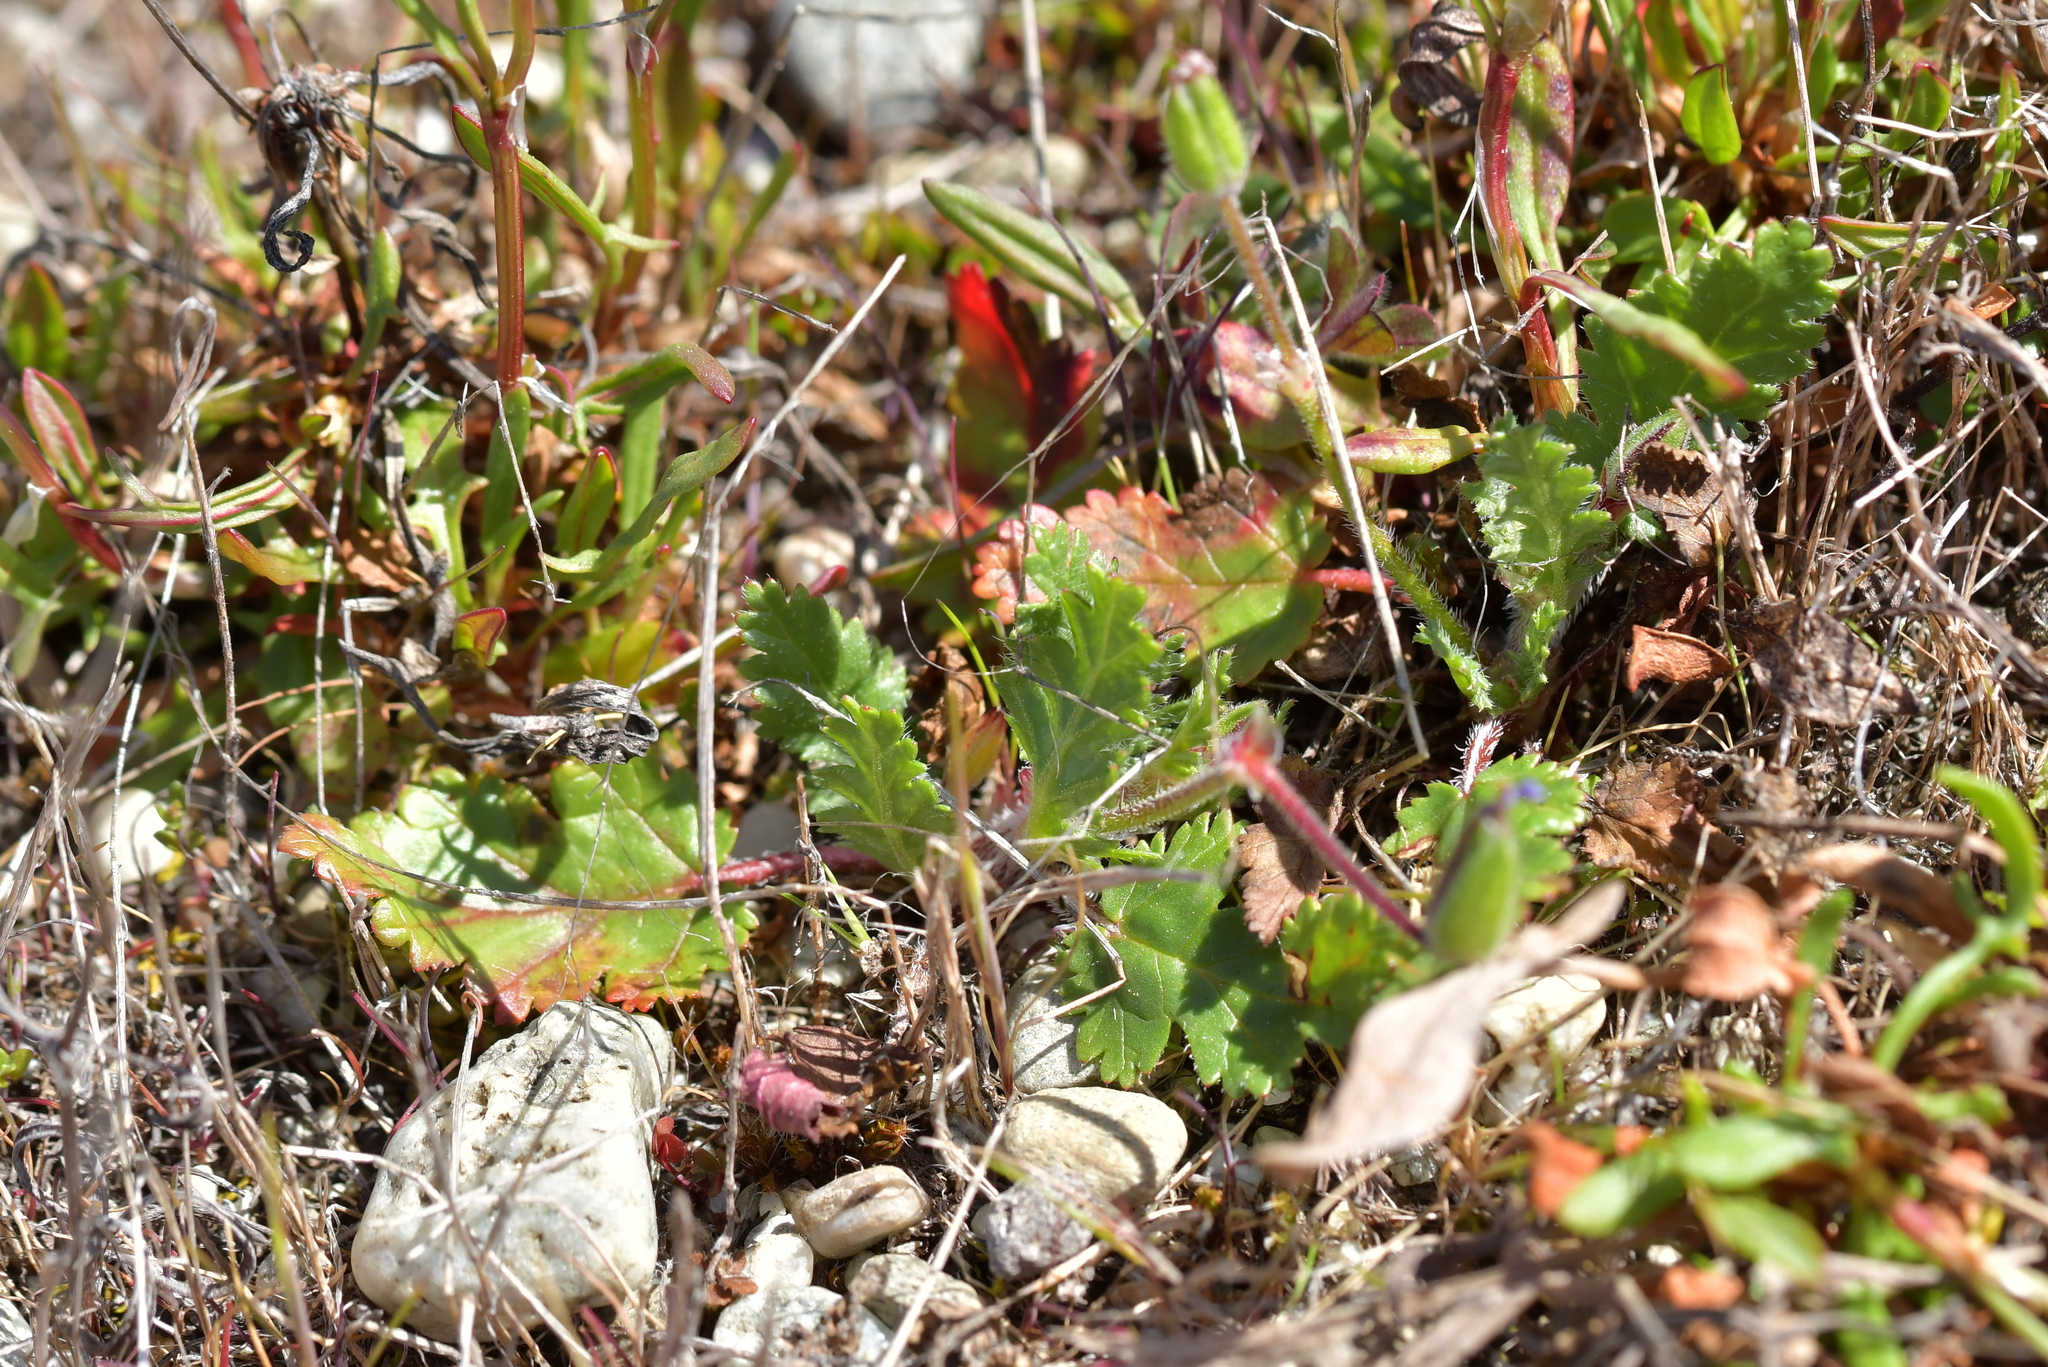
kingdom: Plantae
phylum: Tracheophyta
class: Magnoliopsida
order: Geraniales
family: Geraniaceae
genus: Erodium
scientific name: Erodium botrys
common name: Mediterranean stork's-bill
